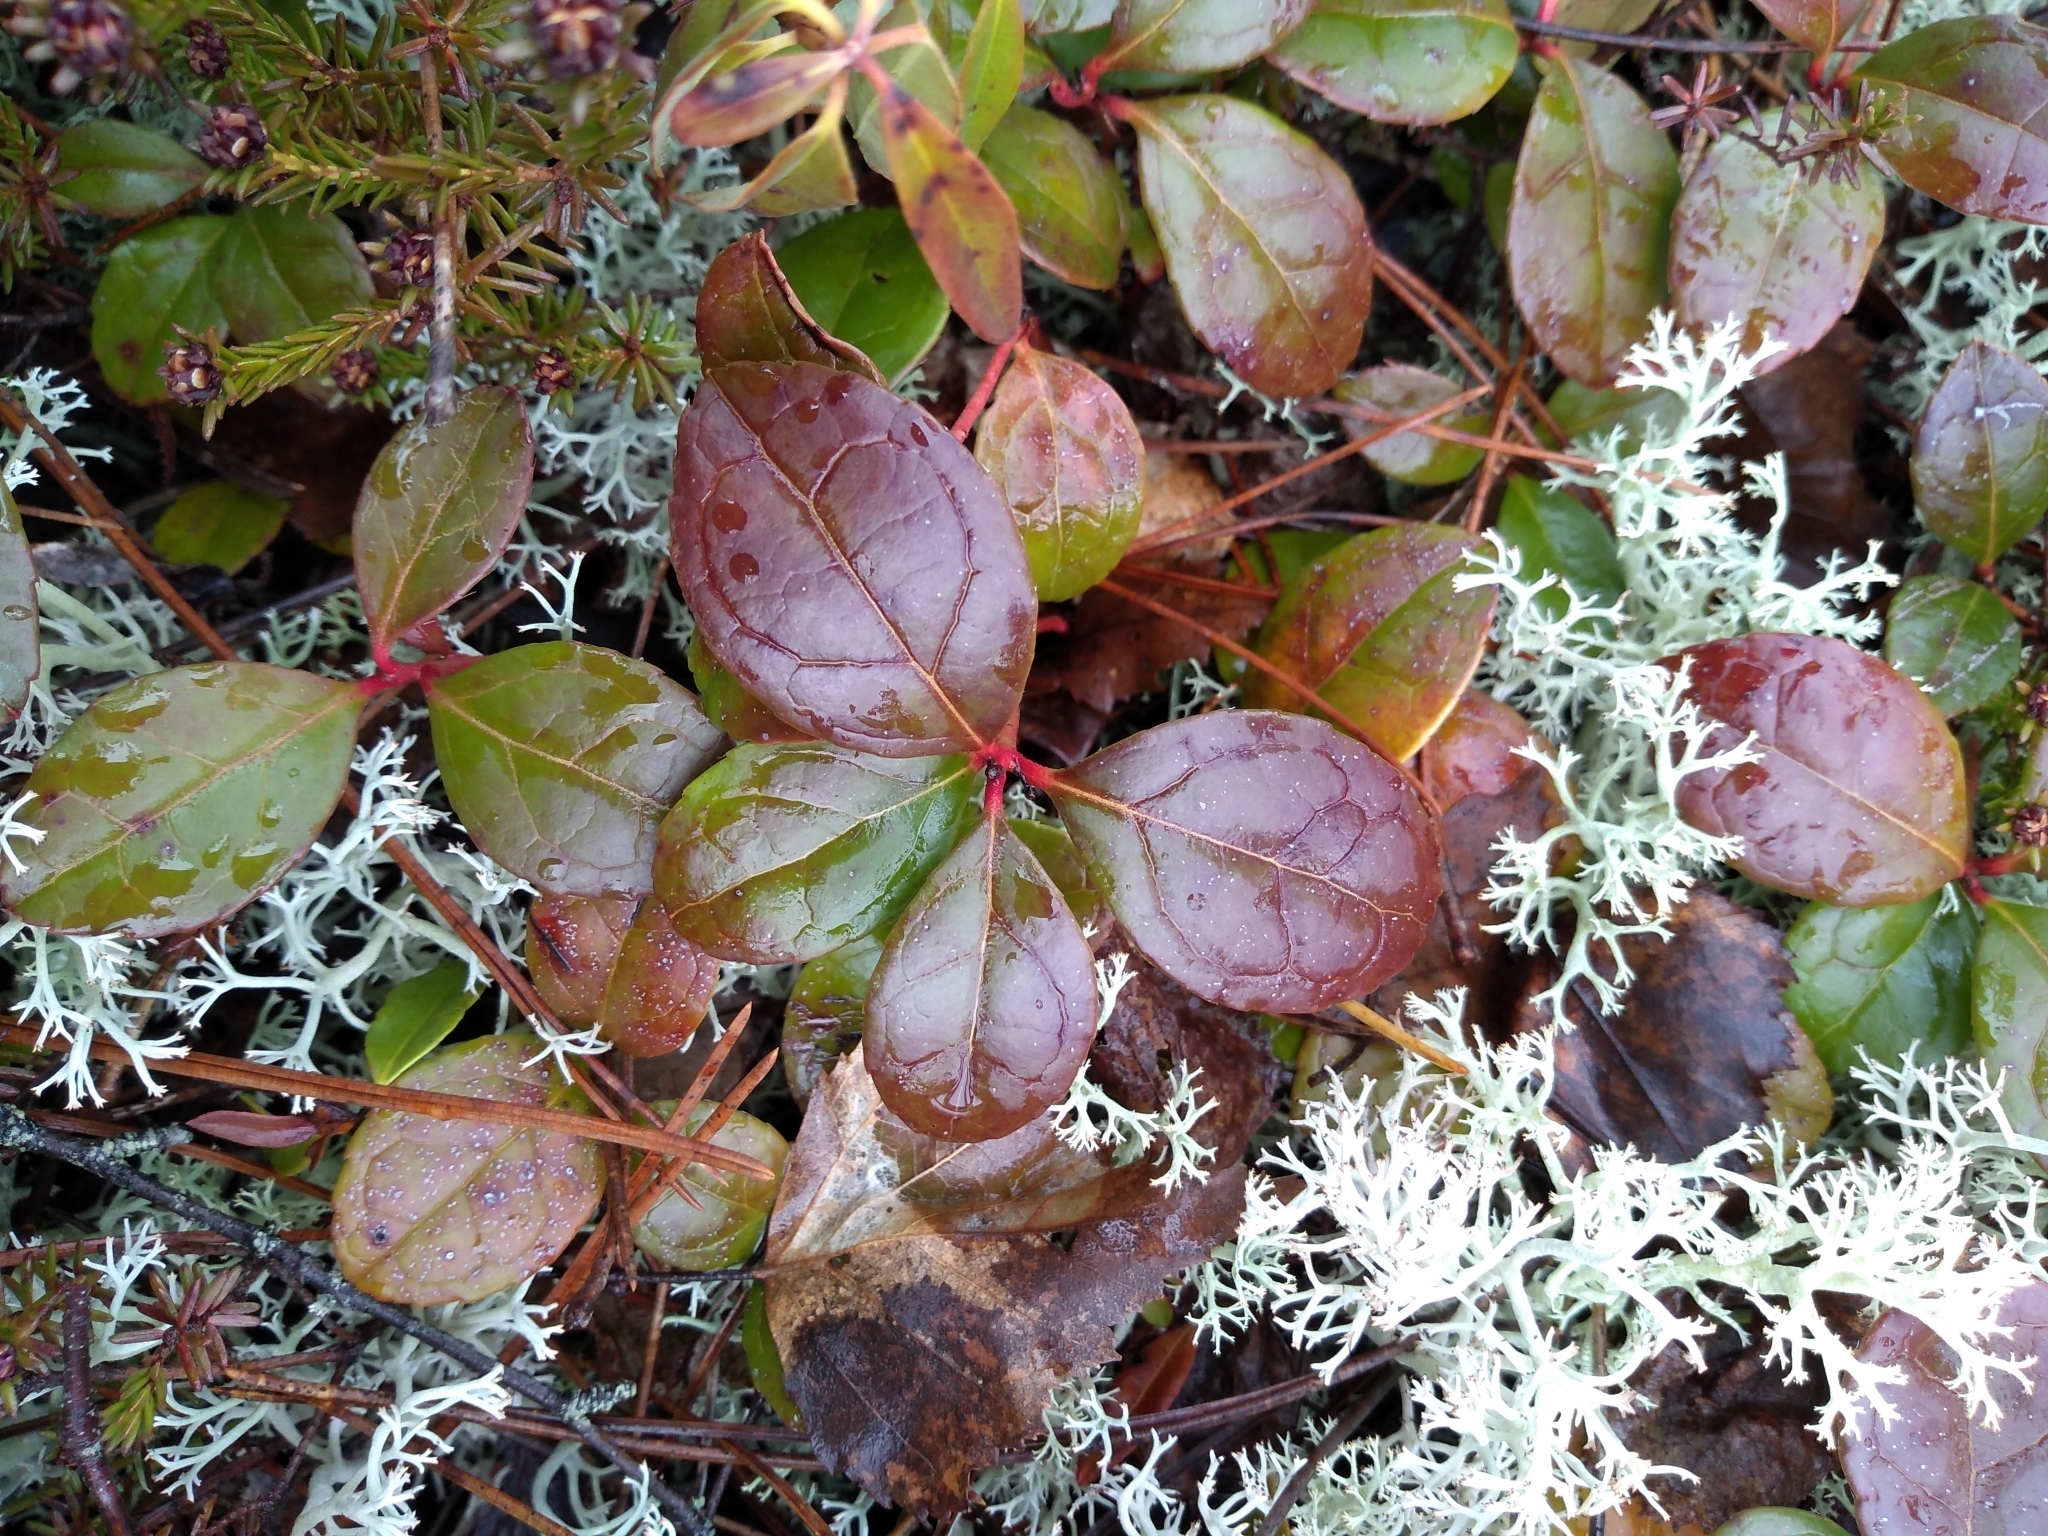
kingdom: Plantae
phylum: Tracheophyta
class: Magnoliopsida
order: Ericales
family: Ericaceae
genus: Gaultheria
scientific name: Gaultheria procumbens
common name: Checkerberry
